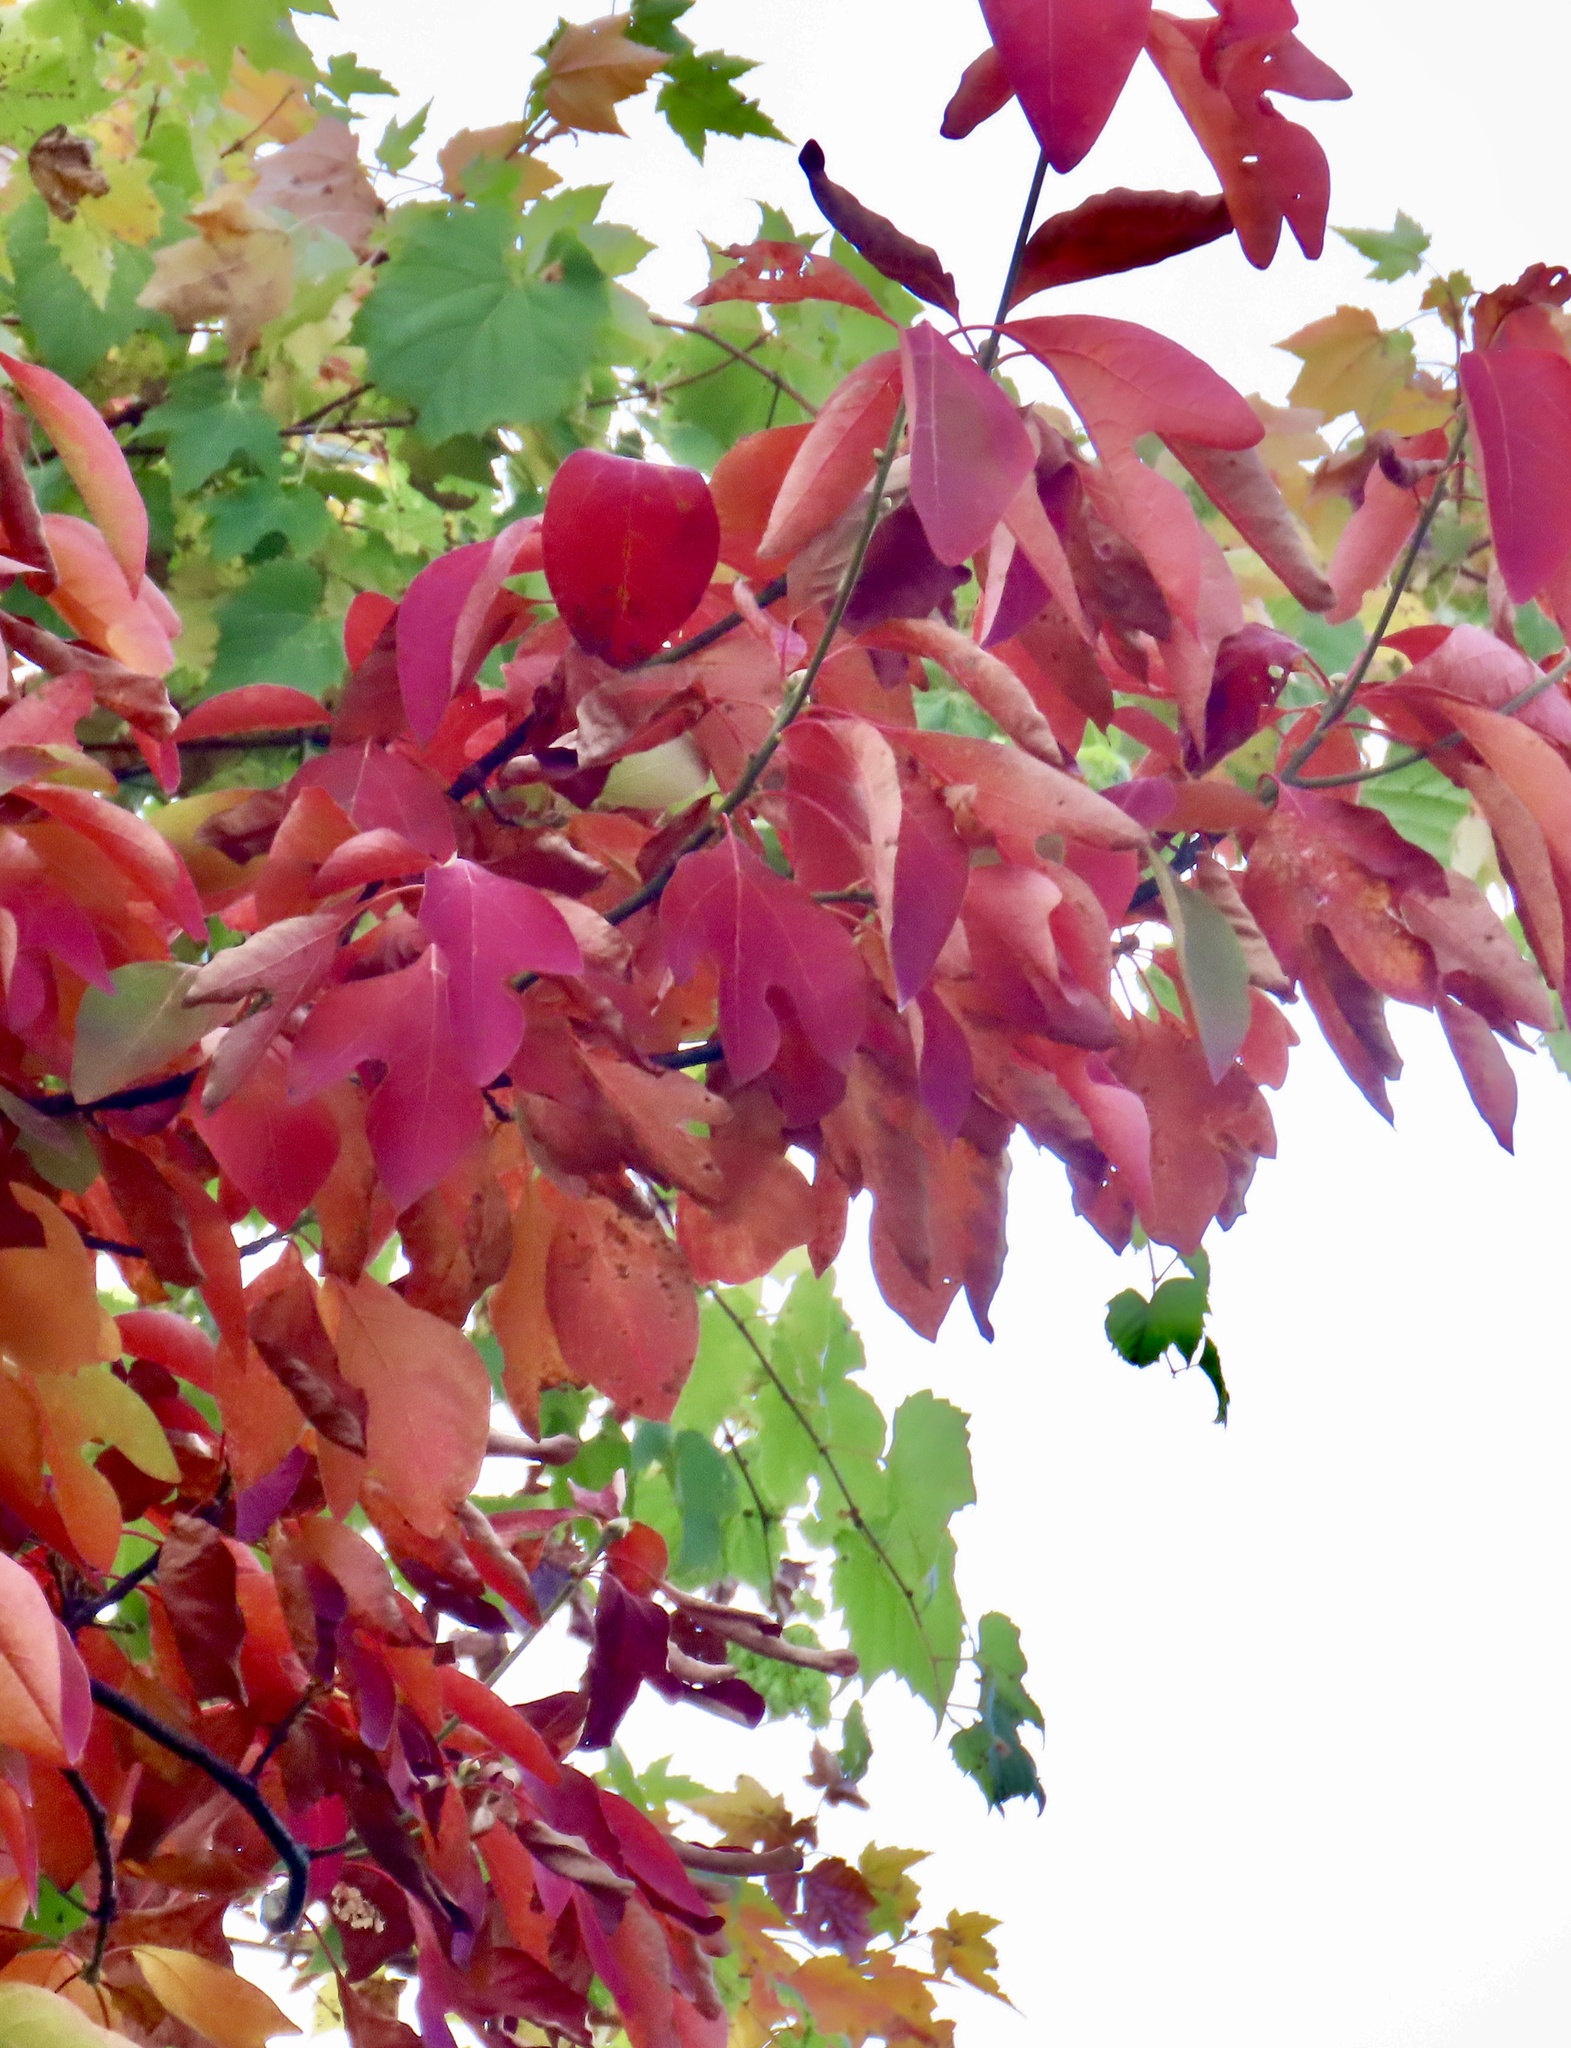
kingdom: Plantae
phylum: Tracheophyta
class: Magnoliopsida
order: Laurales
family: Lauraceae
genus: Sassafras
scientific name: Sassafras albidum
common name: Sassafras
